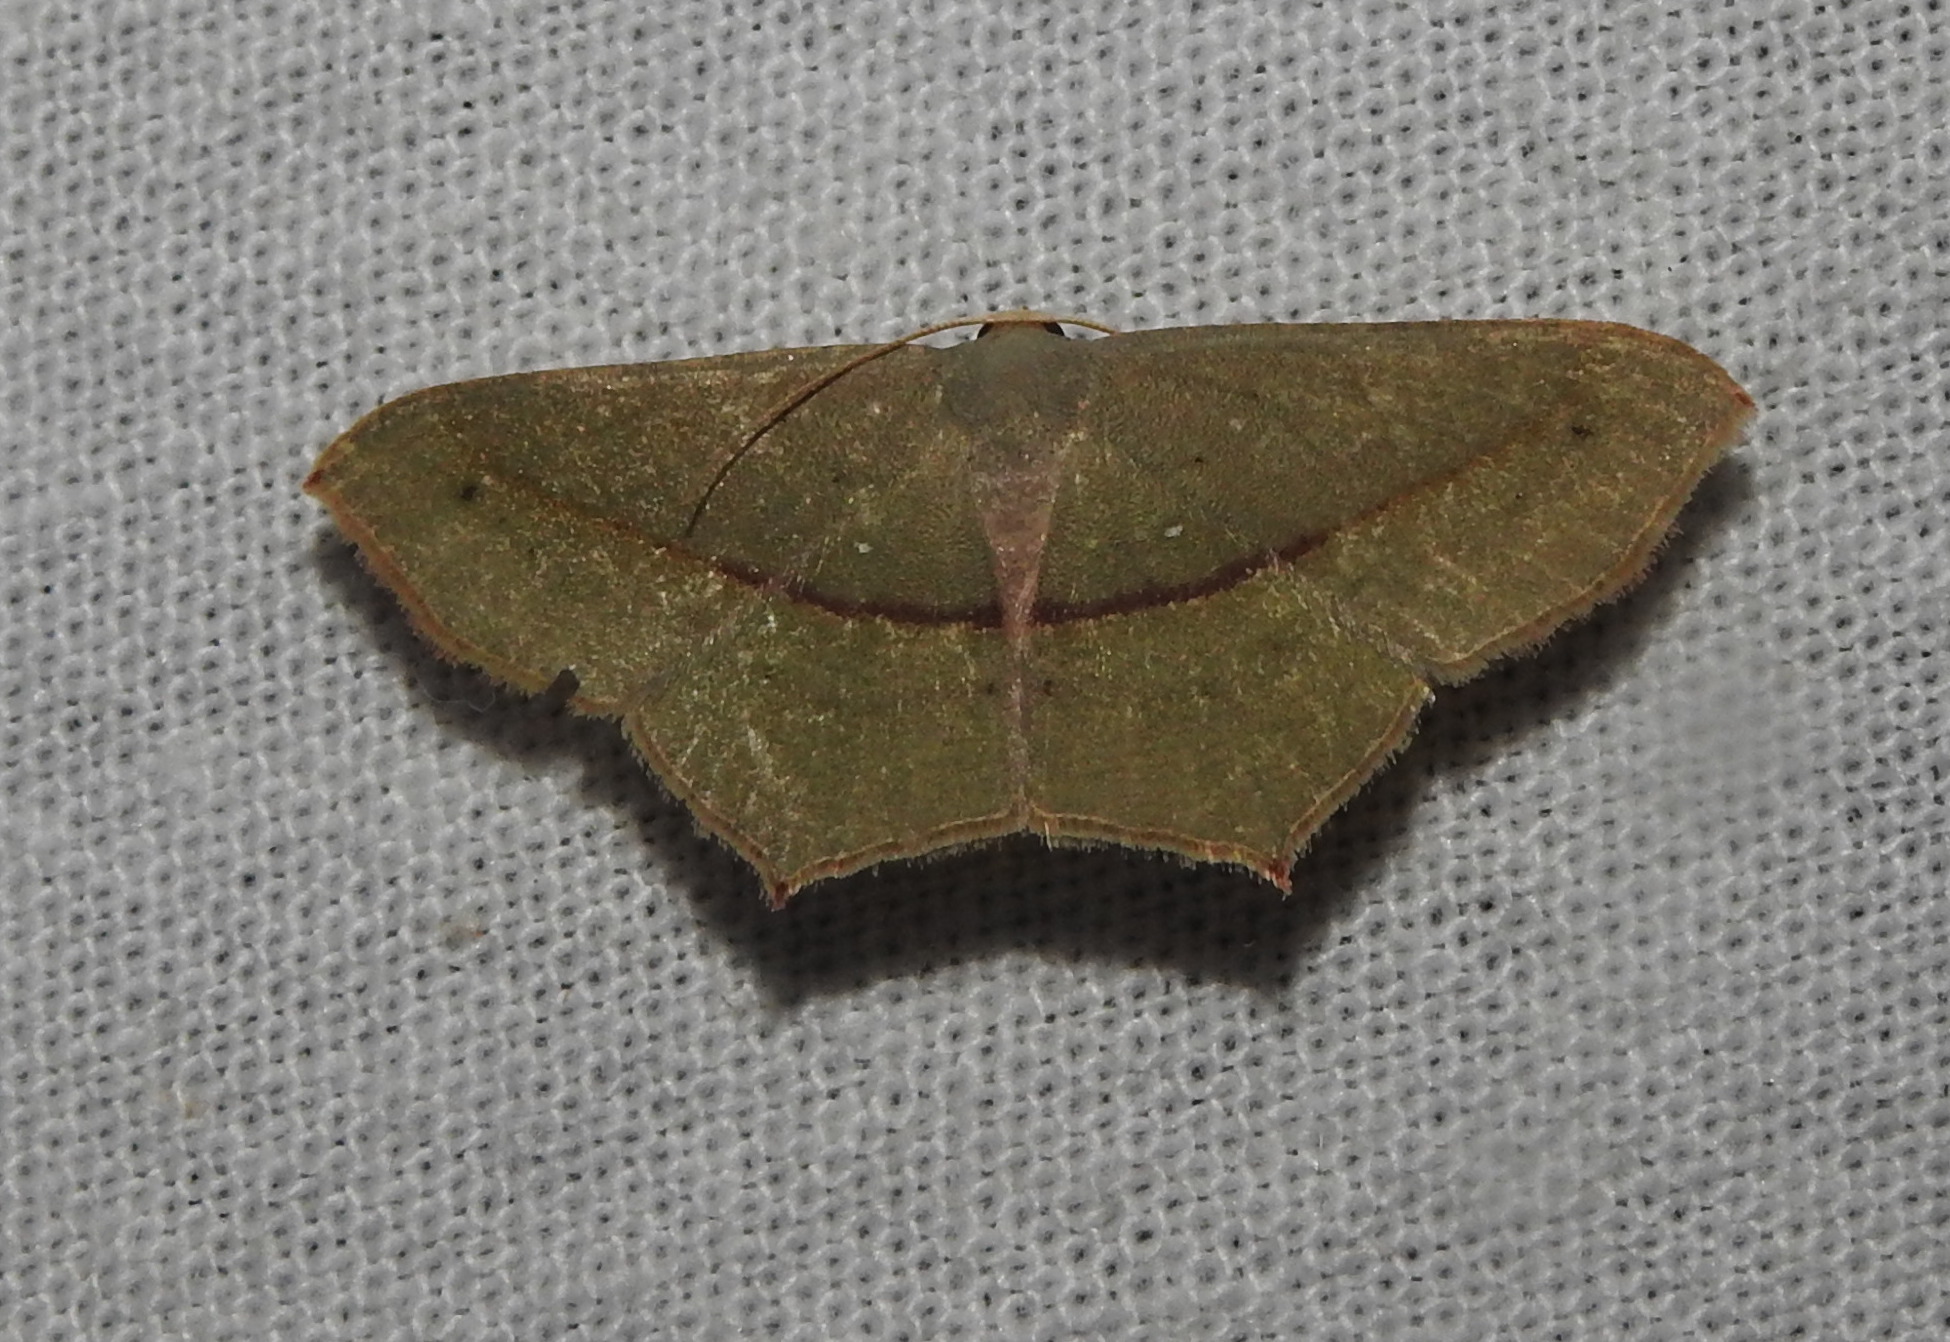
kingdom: Animalia
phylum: Arthropoda
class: Insecta
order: Lepidoptera
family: Geometridae
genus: Traminda
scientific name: Traminda mundissima
